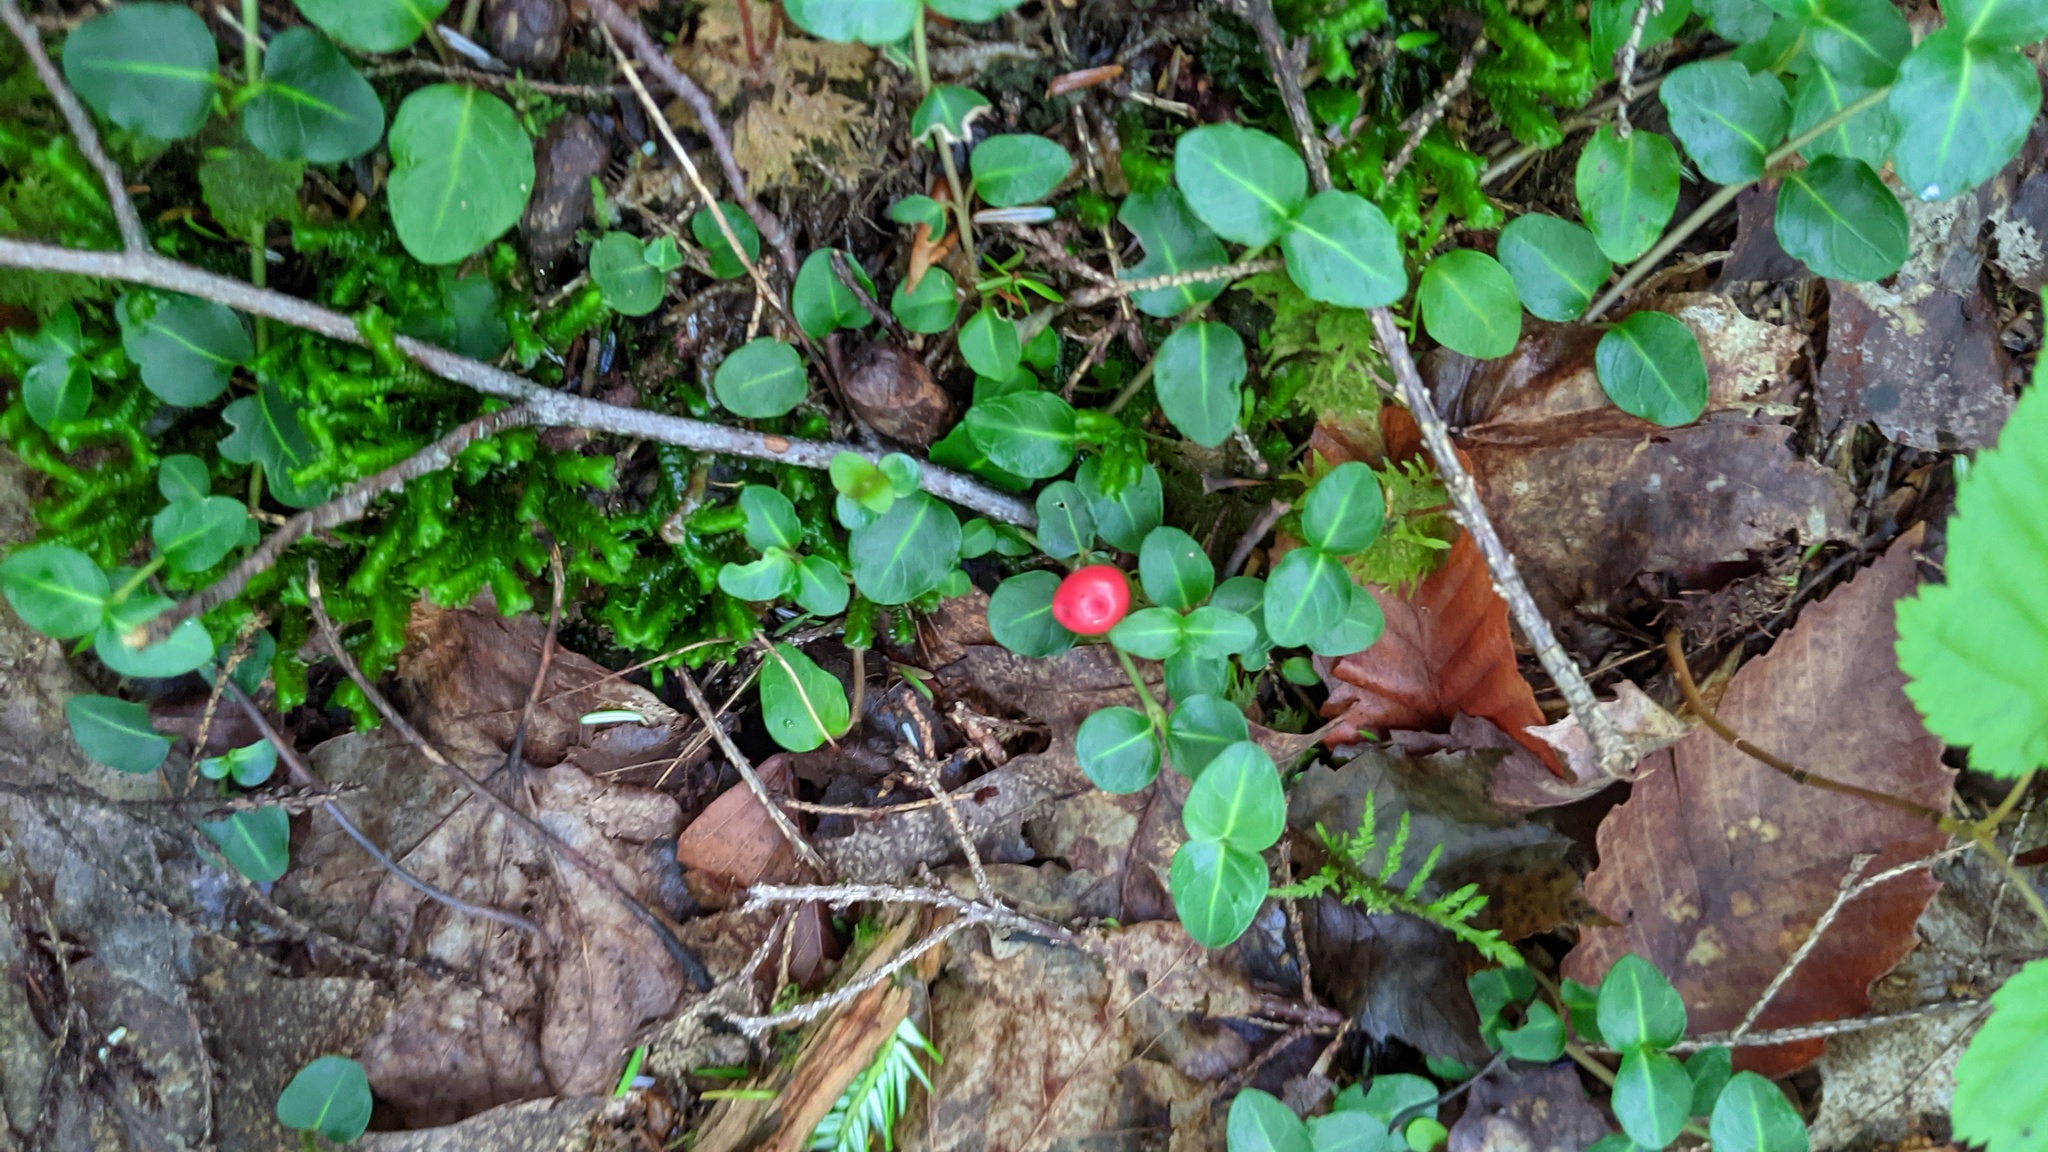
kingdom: Plantae
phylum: Tracheophyta
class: Magnoliopsida
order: Gentianales
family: Rubiaceae
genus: Mitchella
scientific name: Mitchella repens
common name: Partridge-berry
